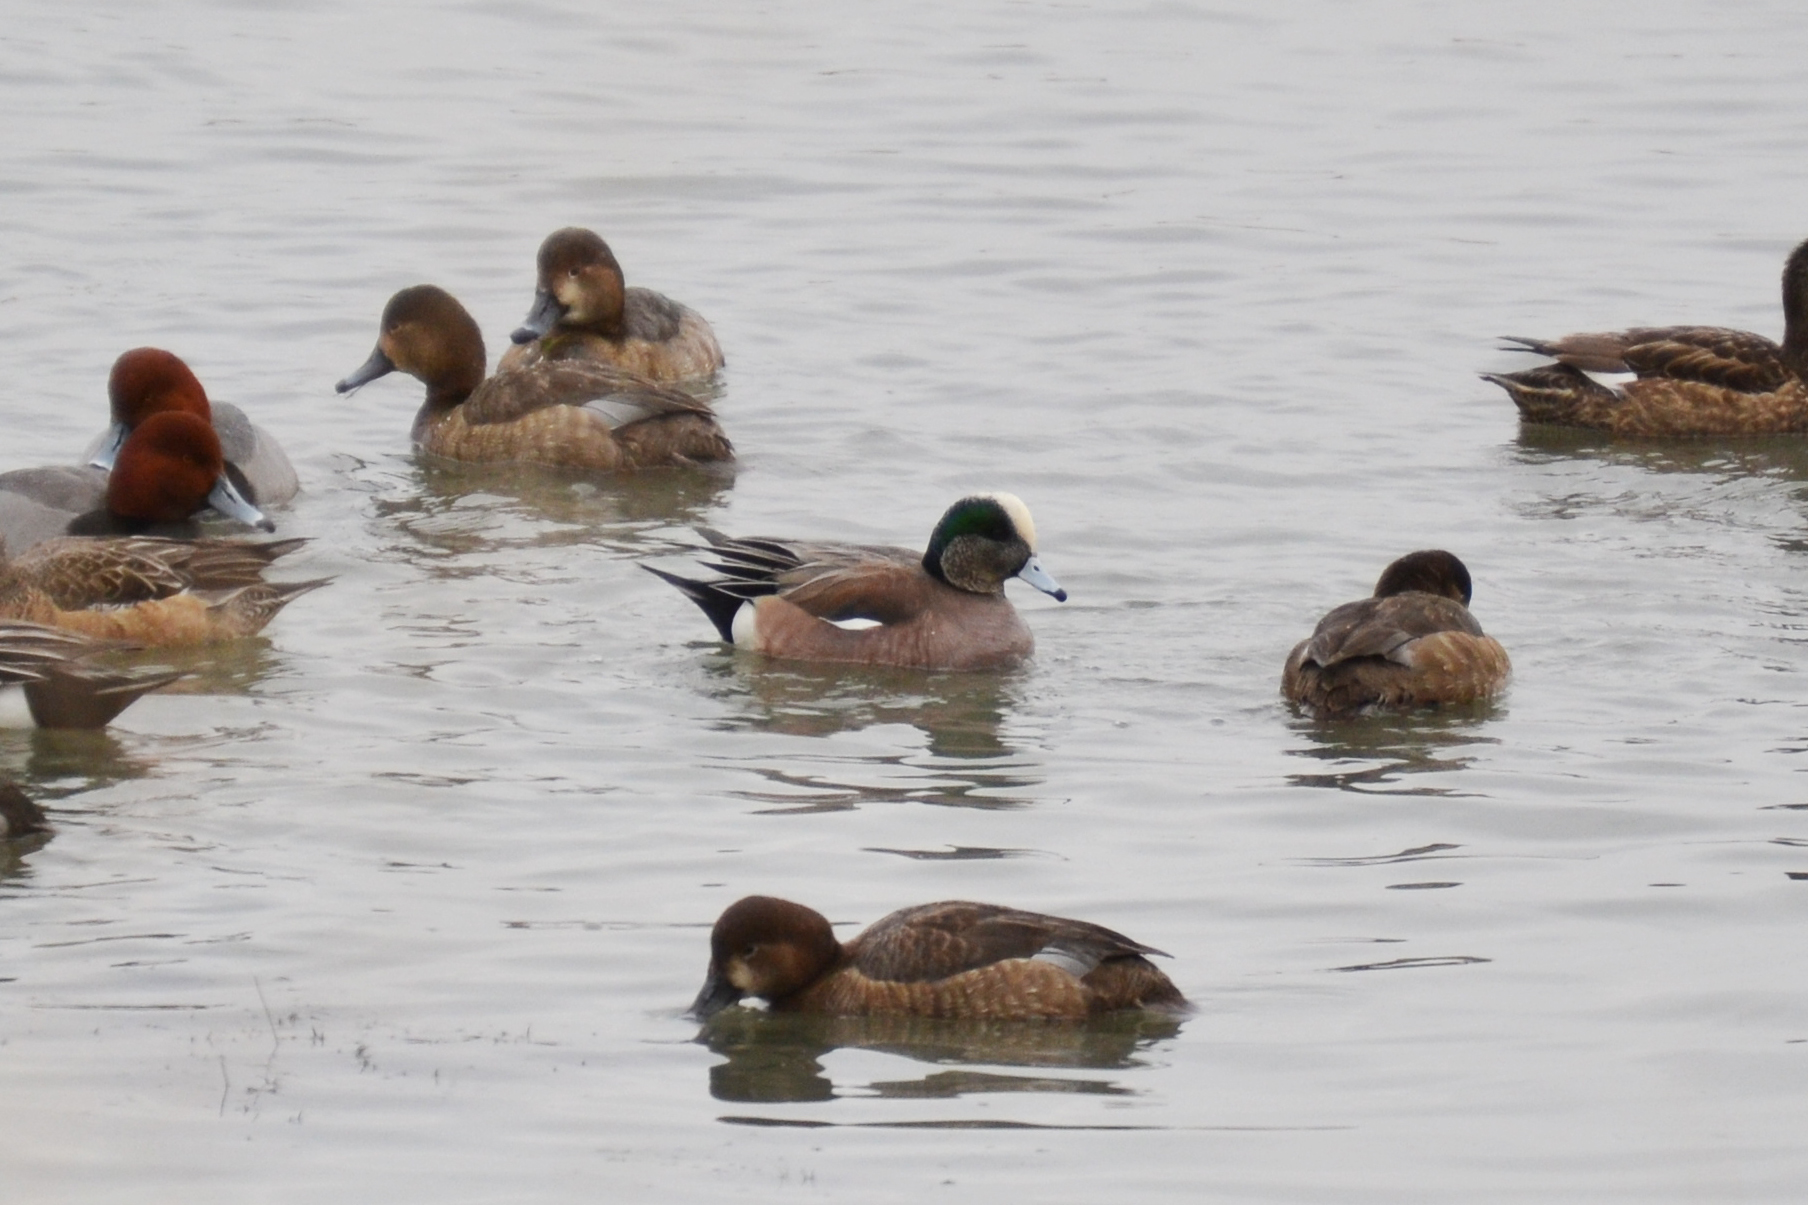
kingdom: Animalia
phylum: Chordata
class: Aves
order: Anseriformes
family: Anatidae
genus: Mareca
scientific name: Mareca americana
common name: American wigeon
